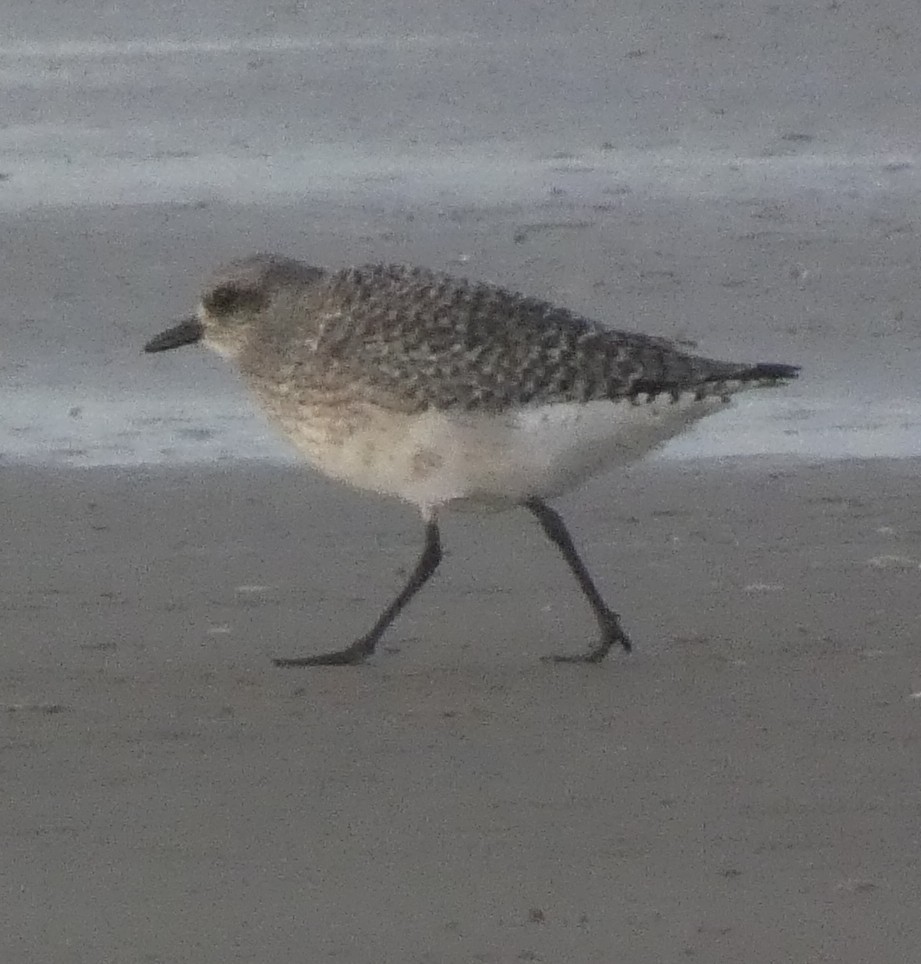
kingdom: Animalia
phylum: Chordata
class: Aves
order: Charadriiformes
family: Charadriidae
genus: Pluvialis
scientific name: Pluvialis squatarola
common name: Grey plover
